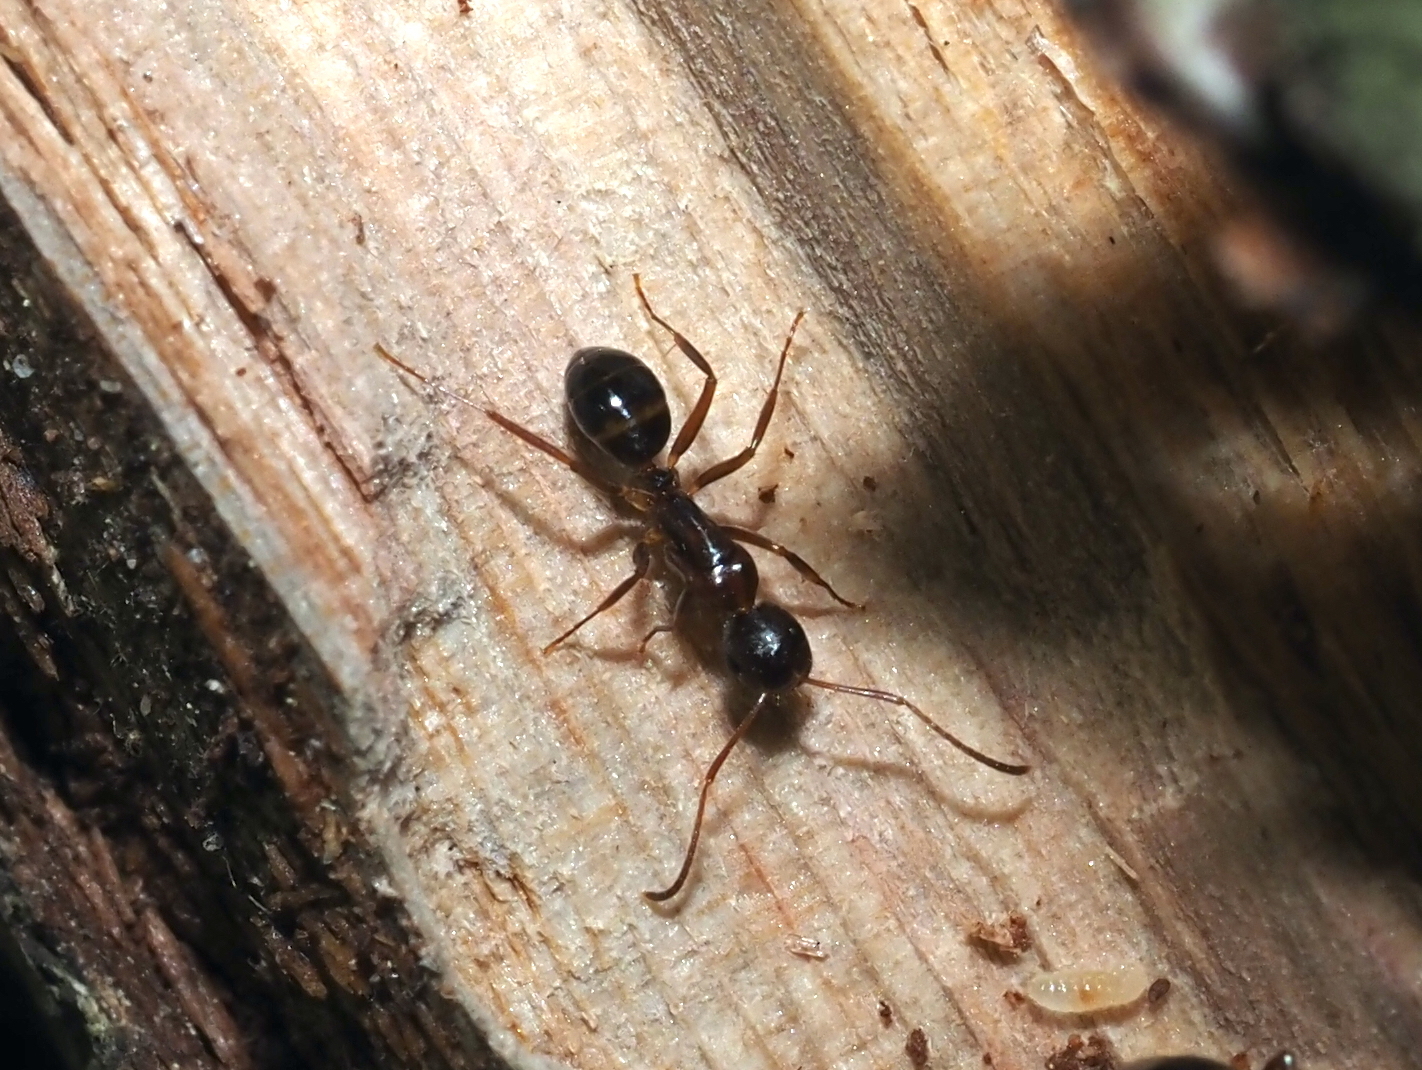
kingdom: Animalia
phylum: Arthropoda
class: Insecta
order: Hymenoptera
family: Formicidae
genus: Camponotus
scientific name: Camponotus subbarbatus
